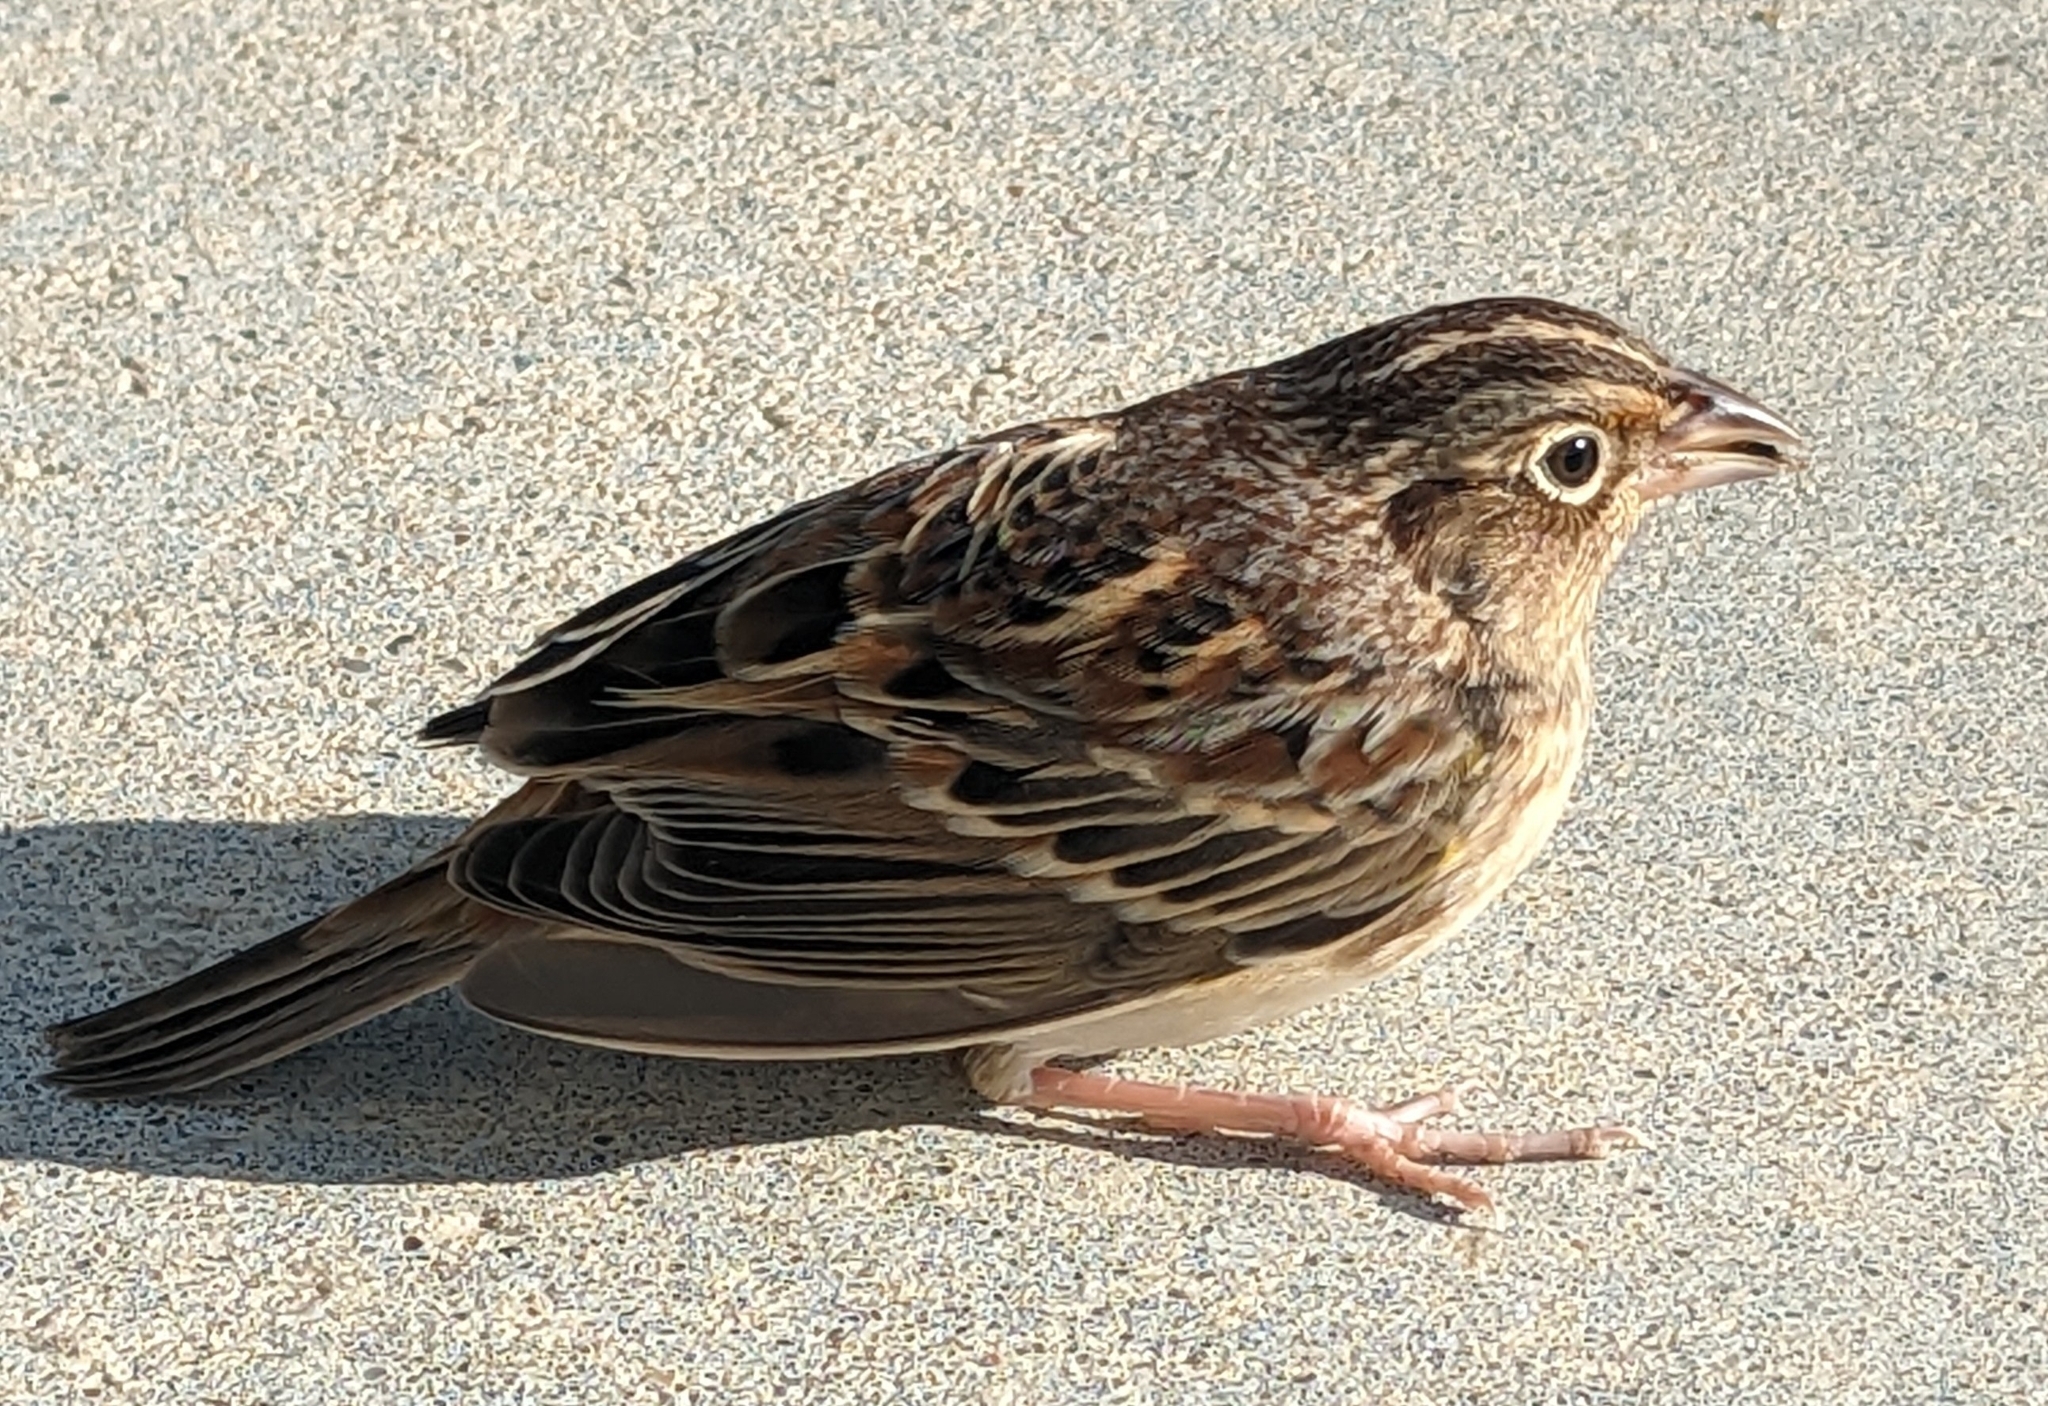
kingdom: Animalia
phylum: Chordata
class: Aves
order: Passeriformes
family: Passerellidae
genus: Ammodramus
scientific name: Ammodramus savannarum
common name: Grasshopper sparrow
